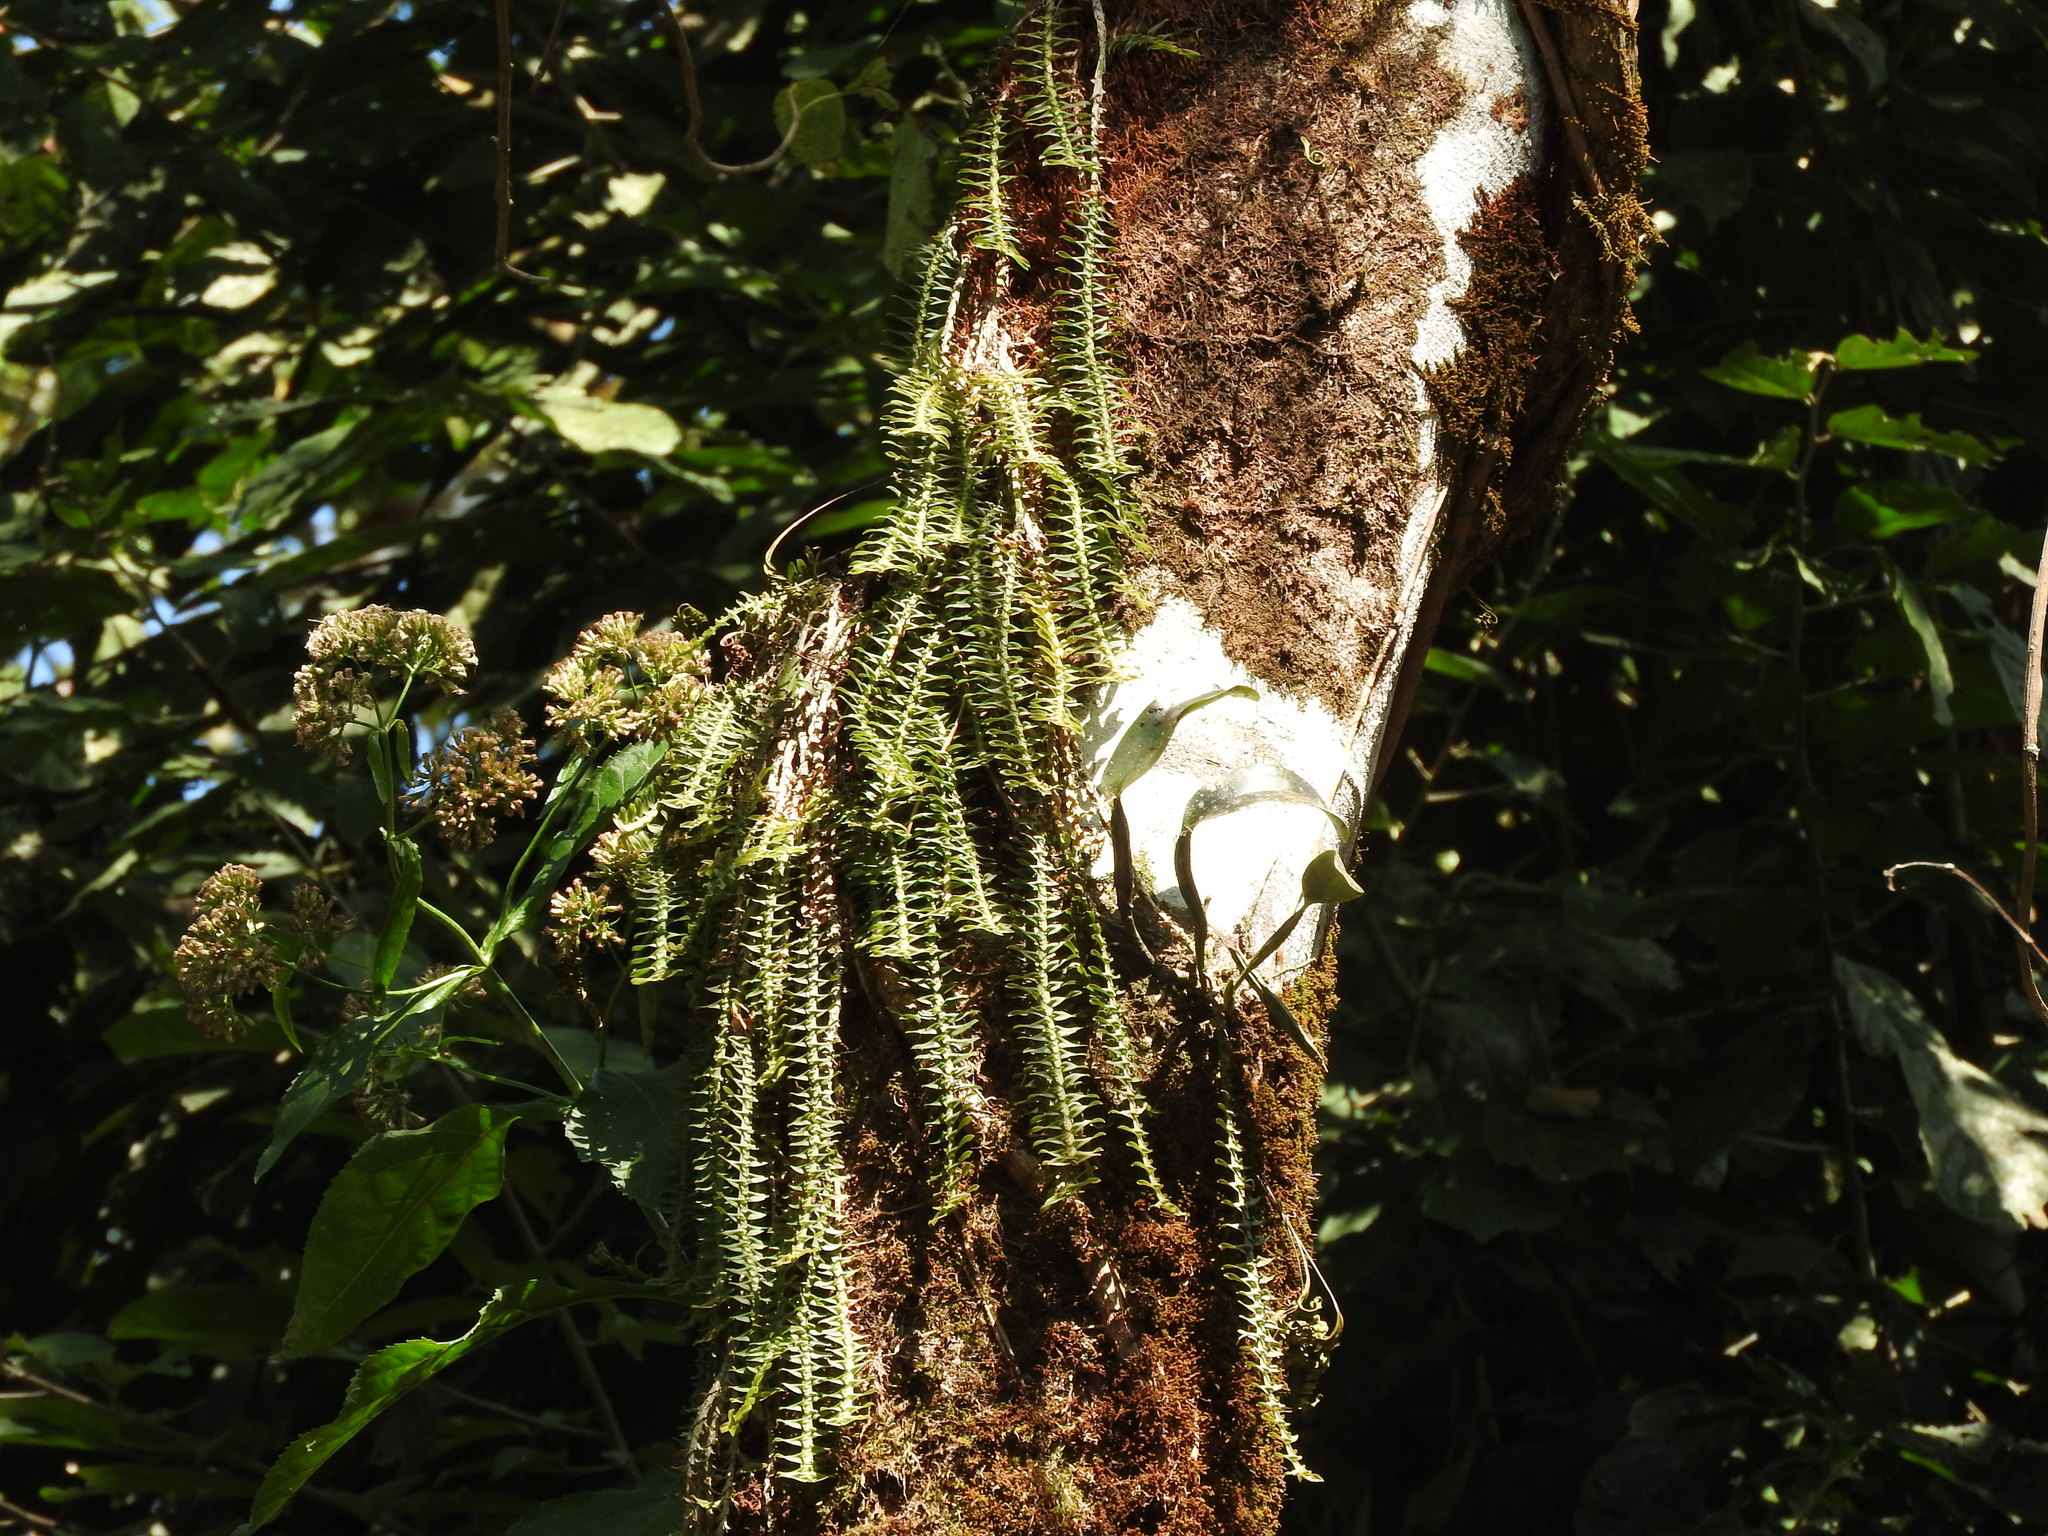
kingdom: Plantae
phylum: Tracheophyta
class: Liliopsida
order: Asparagales
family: Orchidaceae
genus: Dichaea
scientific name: Dichaea muricatoides
